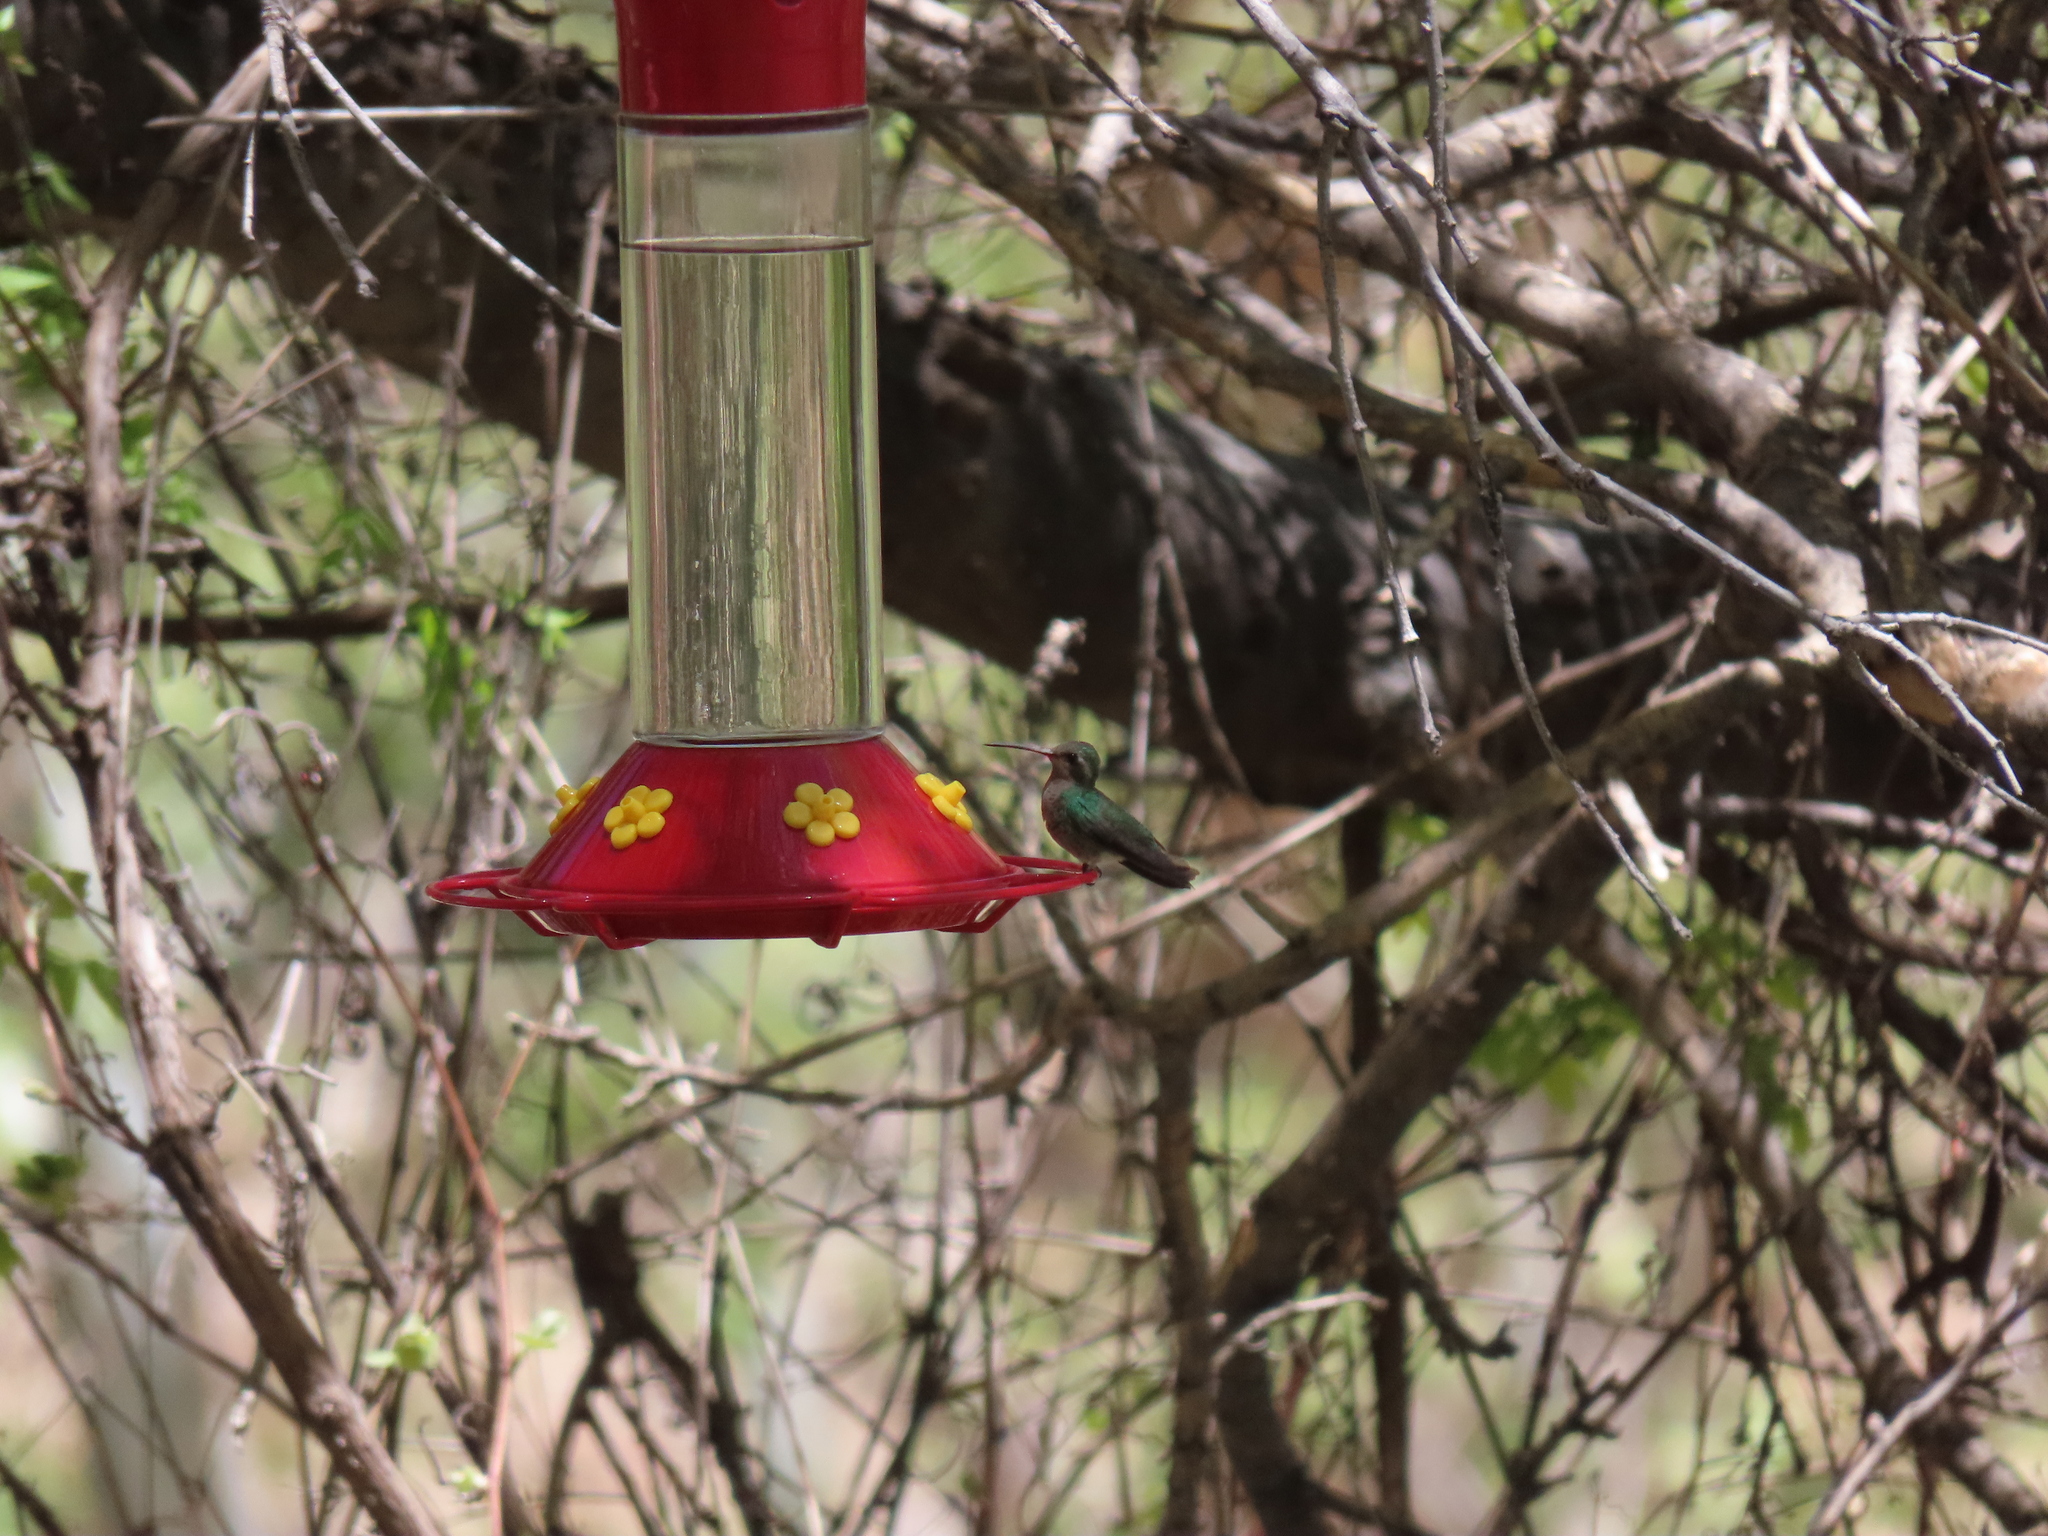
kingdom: Animalia
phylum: Chordata
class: Aves
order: Apodiformes
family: Trochilidae
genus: Cynanthus
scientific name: Cynanthus latirostris
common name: Broad-billed hummingbird
